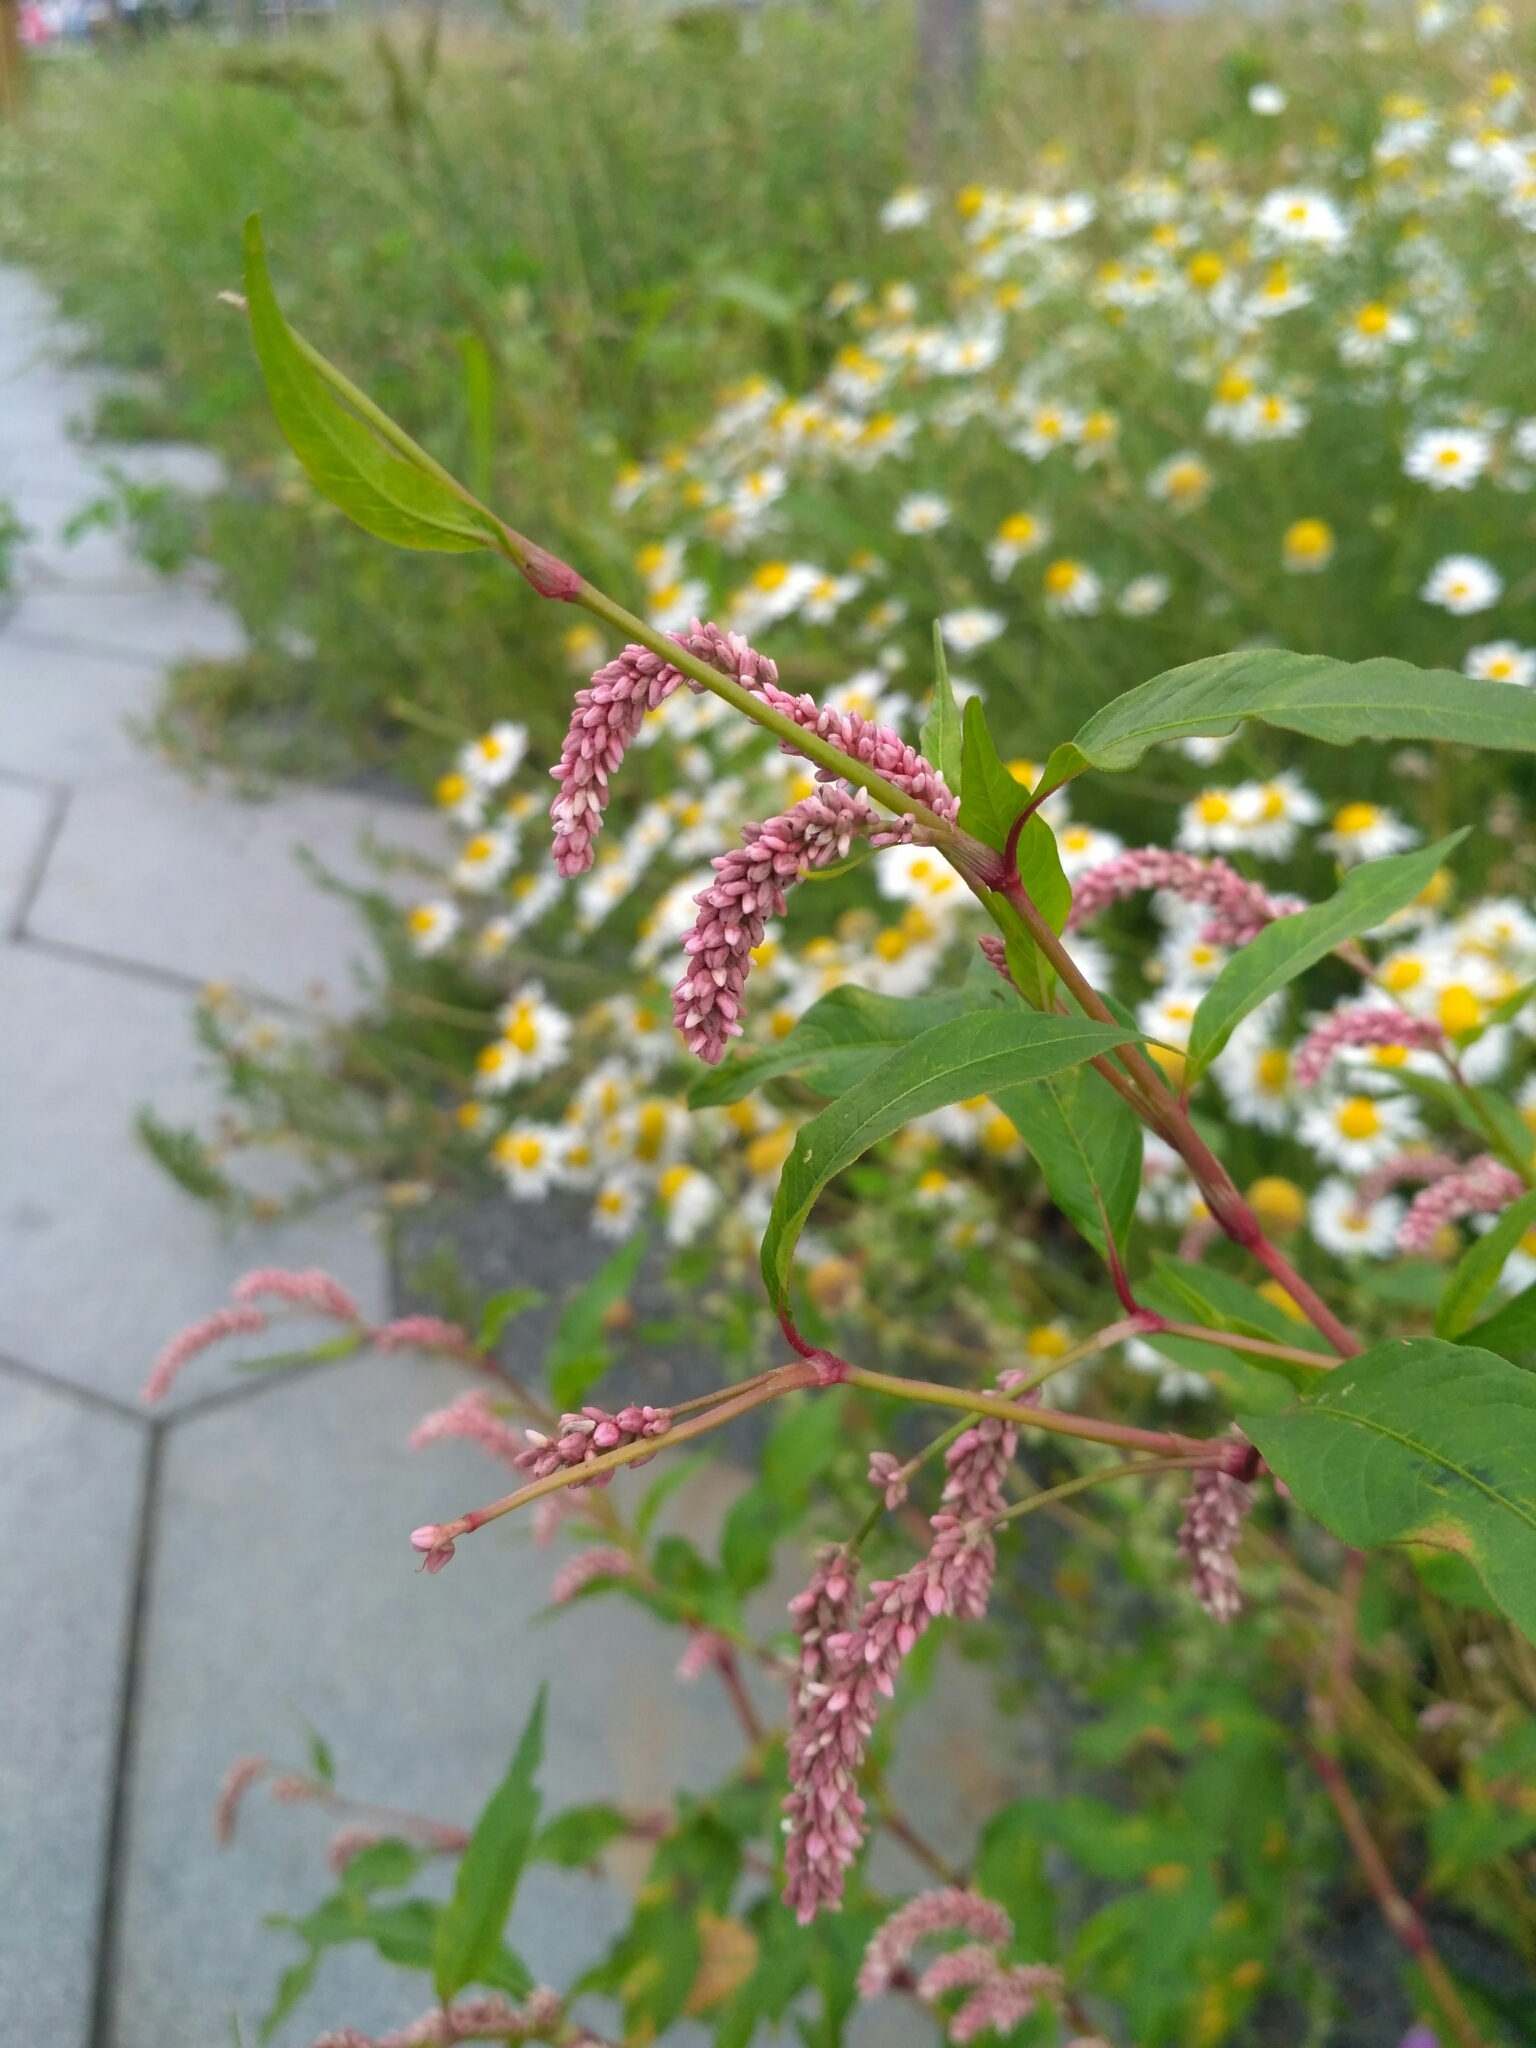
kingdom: Plantae
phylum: Tracheophyta
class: Magnoliopsida
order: Caryophyllales
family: Polygonaceae
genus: Persicaria
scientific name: Persicaria lapathifolia
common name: Curlytop knotweed
